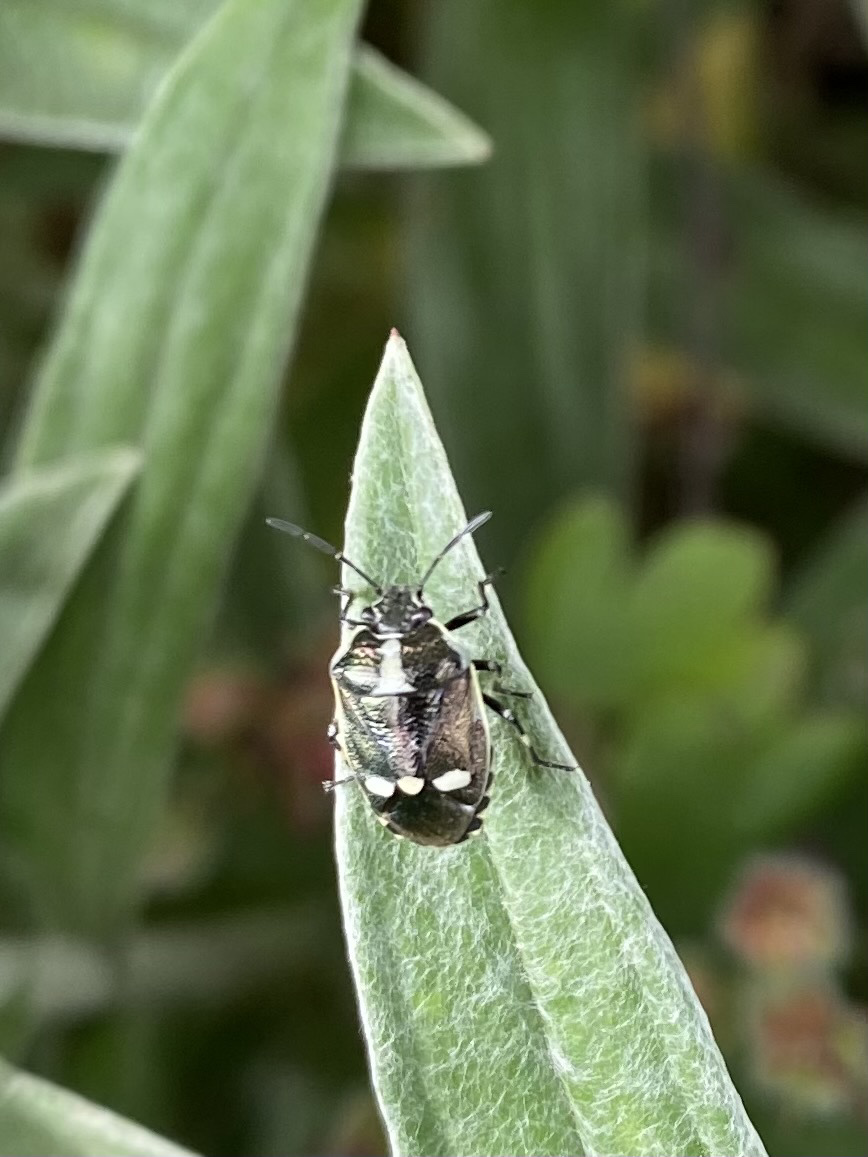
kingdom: Animalia
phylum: Arthropoda
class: Insecta
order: Hemiptera
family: Pentatomidae
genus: Eurydema
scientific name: Eurydema oleracea
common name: Cabbage bug
